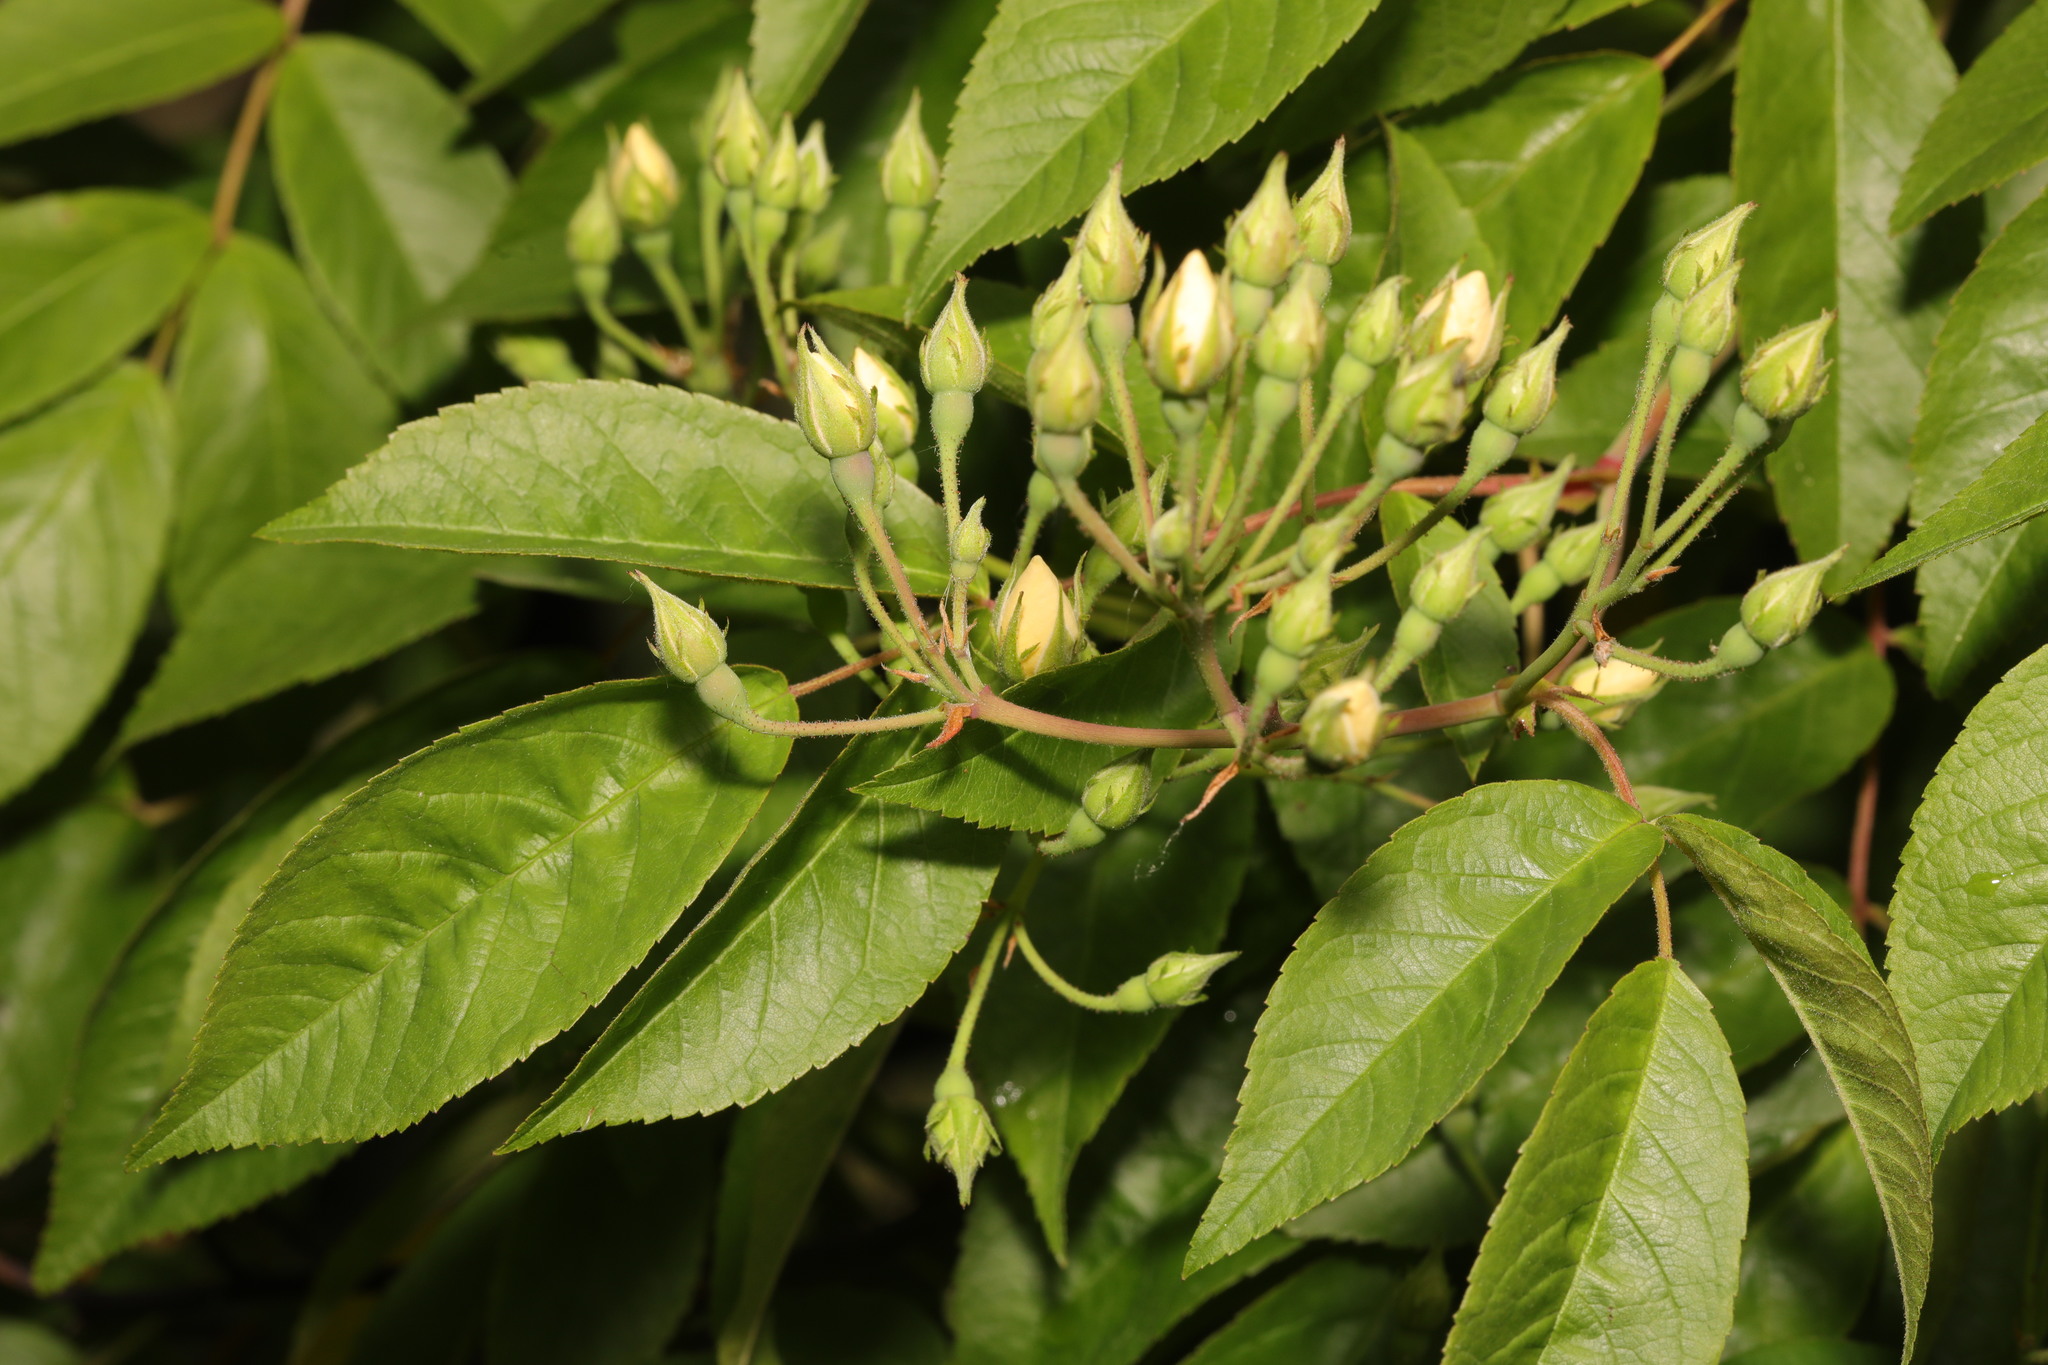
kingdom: Plantae
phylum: Tracheophyta
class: Magnoliopsida
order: Rosales
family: Rosaceae
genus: Rosa
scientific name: Rosa multiflora
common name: Multiflora rose
